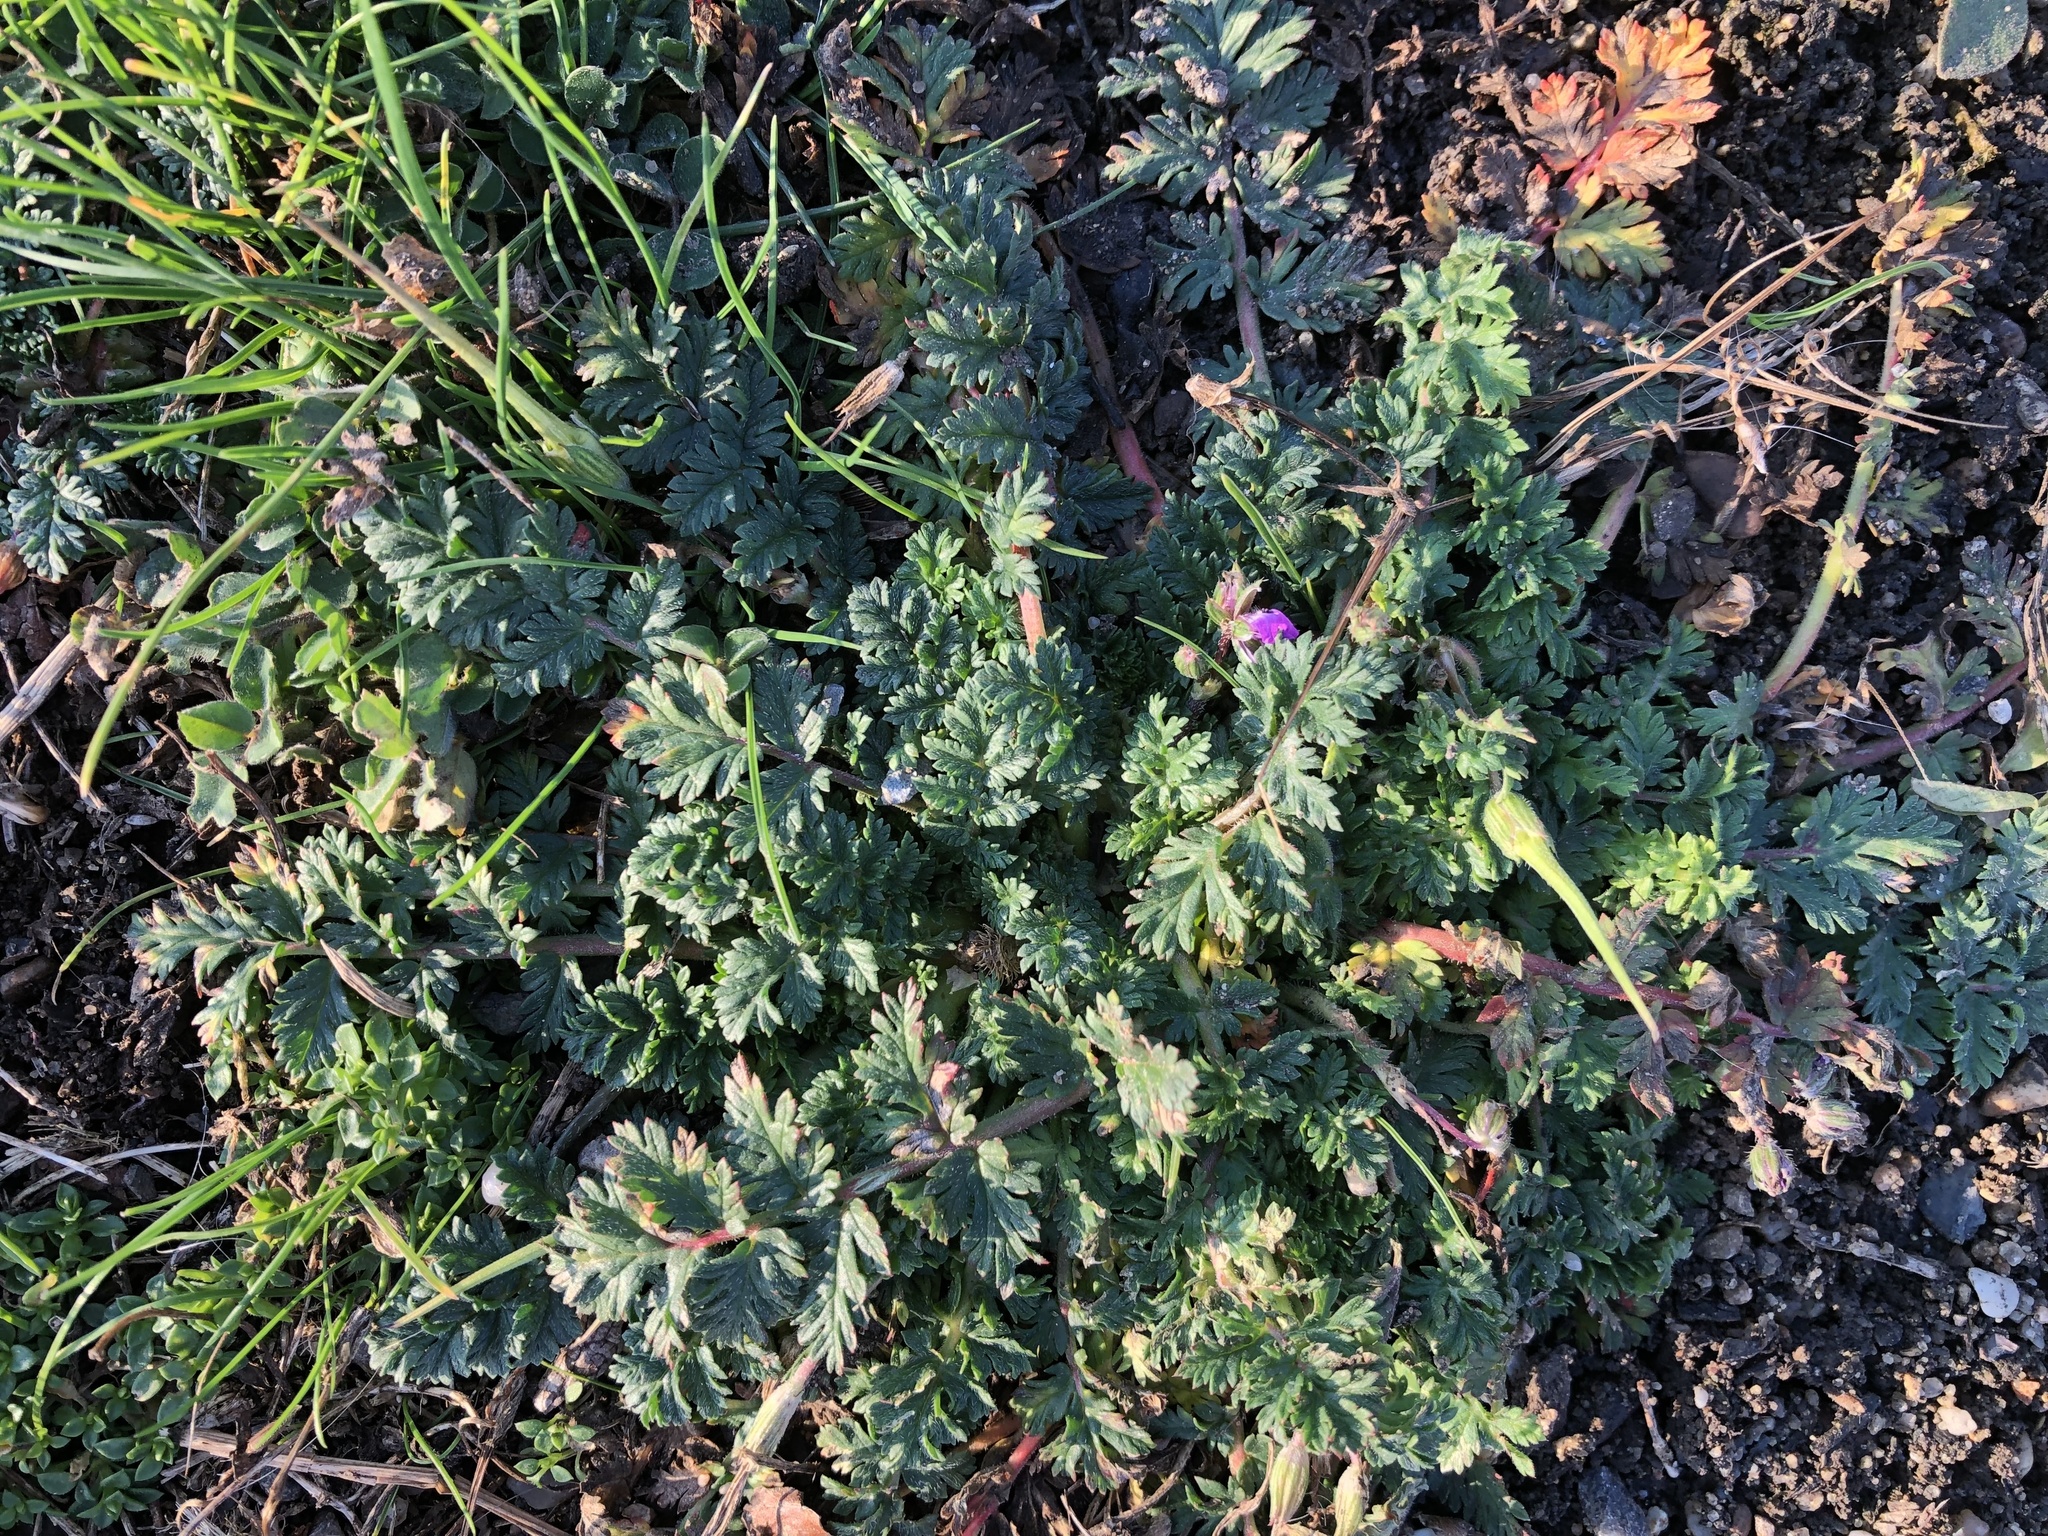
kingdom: Plantae
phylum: Tracheophyta
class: Magnoliopsida
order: Geraniales
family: Geraniaceae
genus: Erodium
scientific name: Erodium cicutarium
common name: Common stork's-bill
